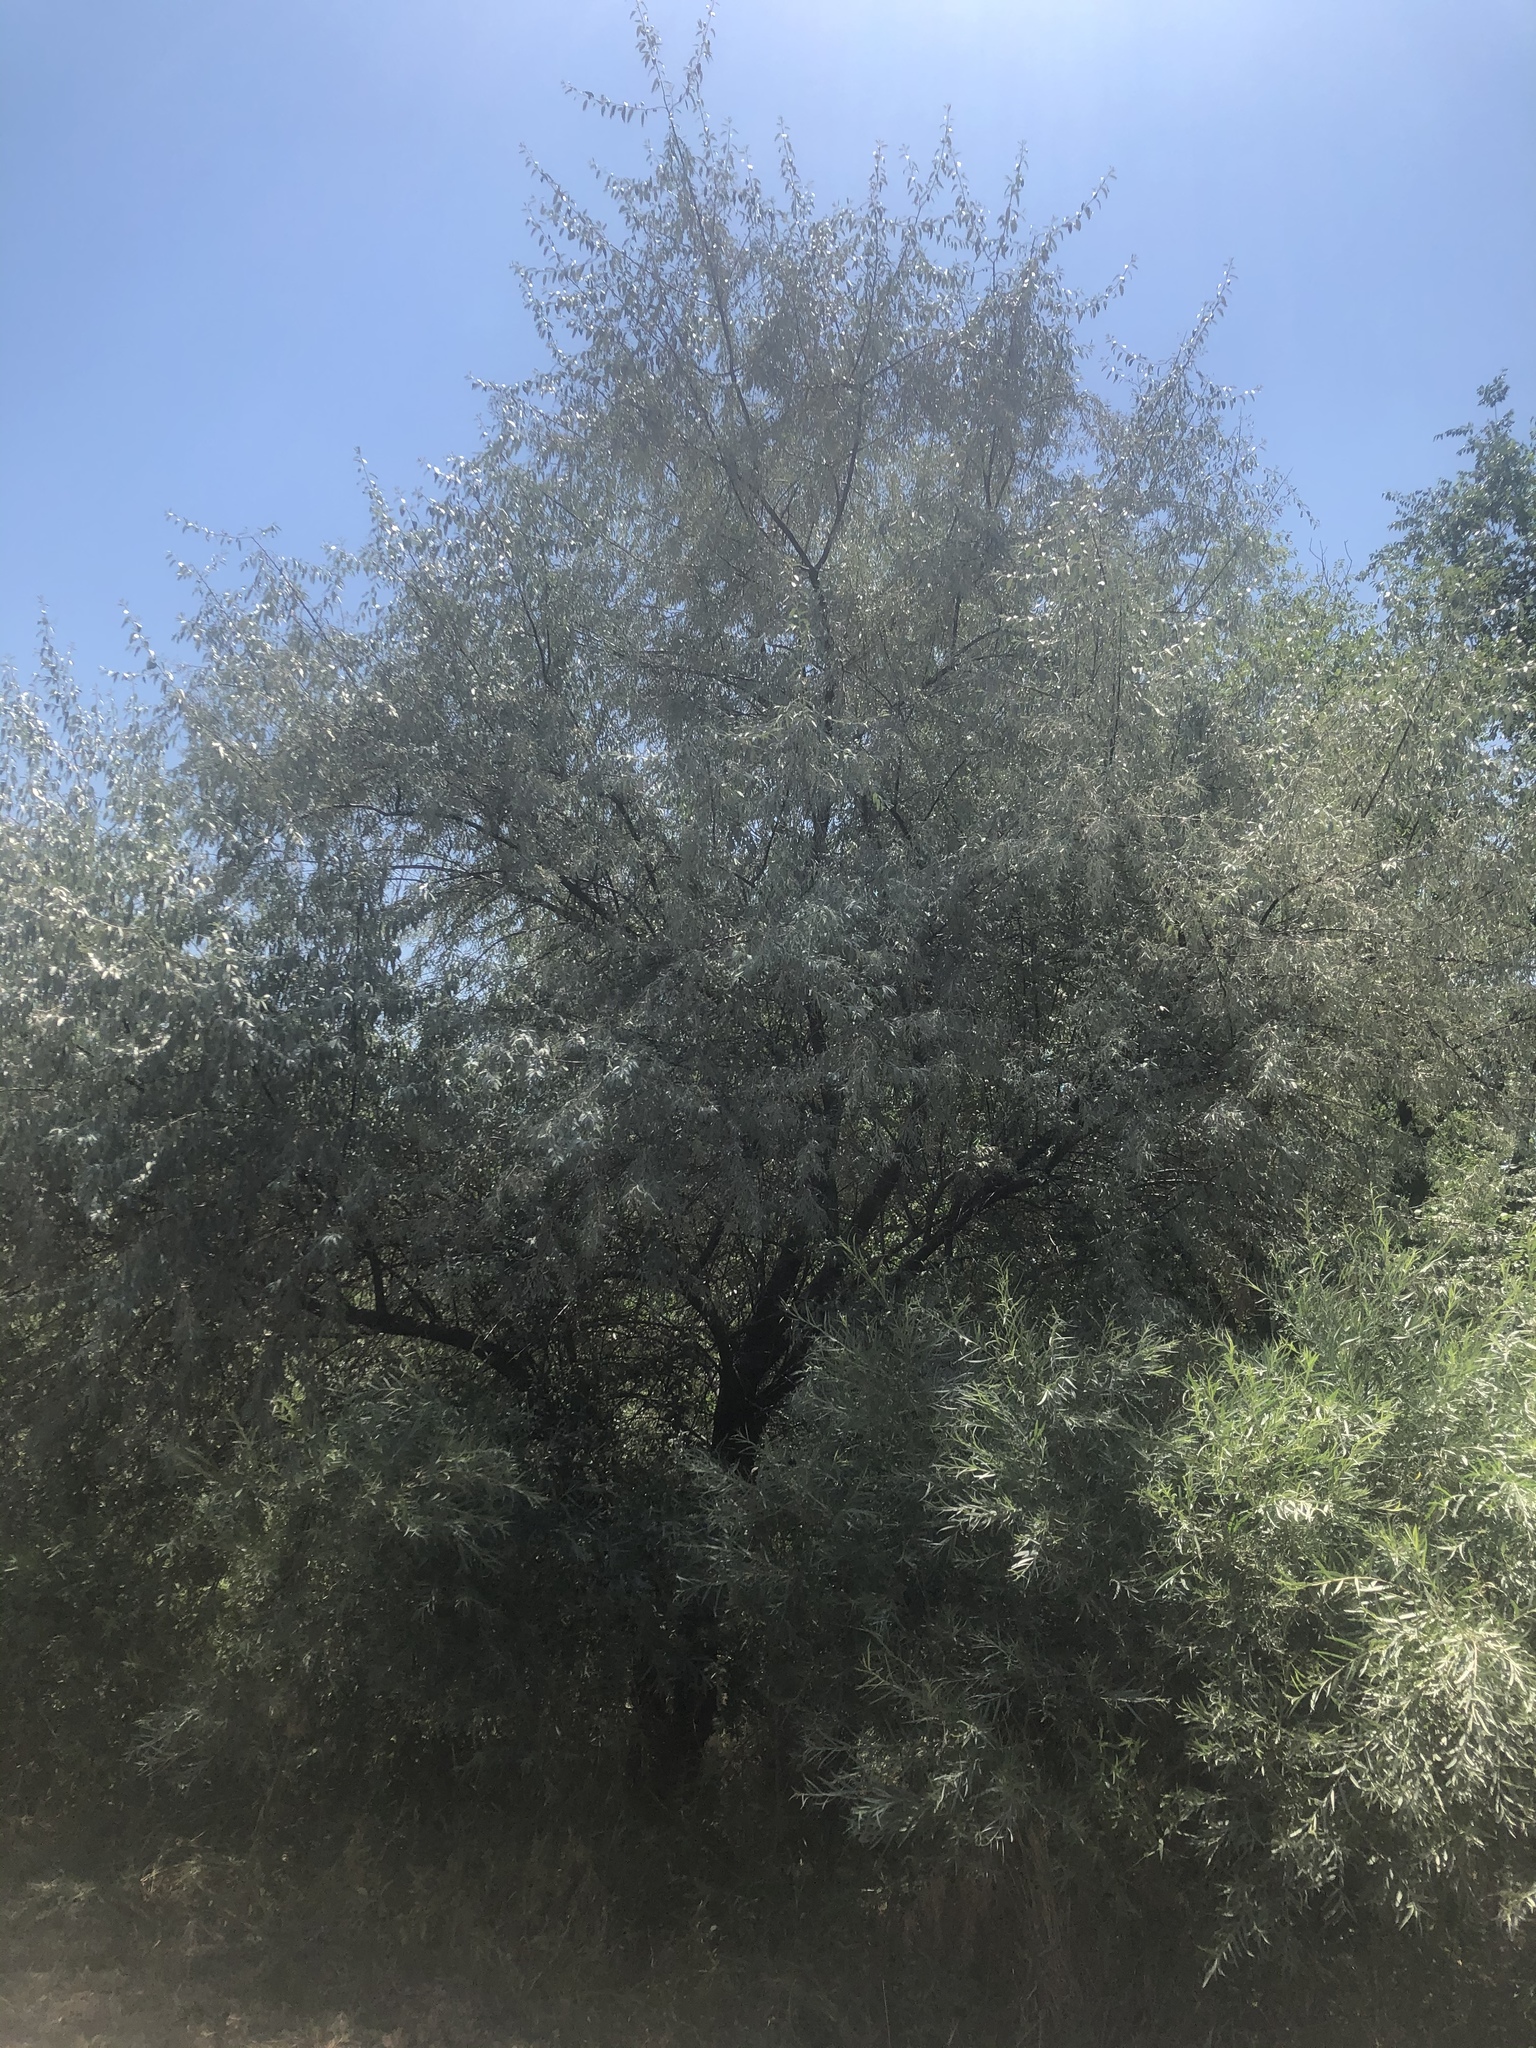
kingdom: Plantae
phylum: Tracheophyta
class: Magnoliopsida
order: Rosales
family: Elaeagnaceae
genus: Elaeagnus
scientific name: Elaeagnus angustifolia
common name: Russian olive
